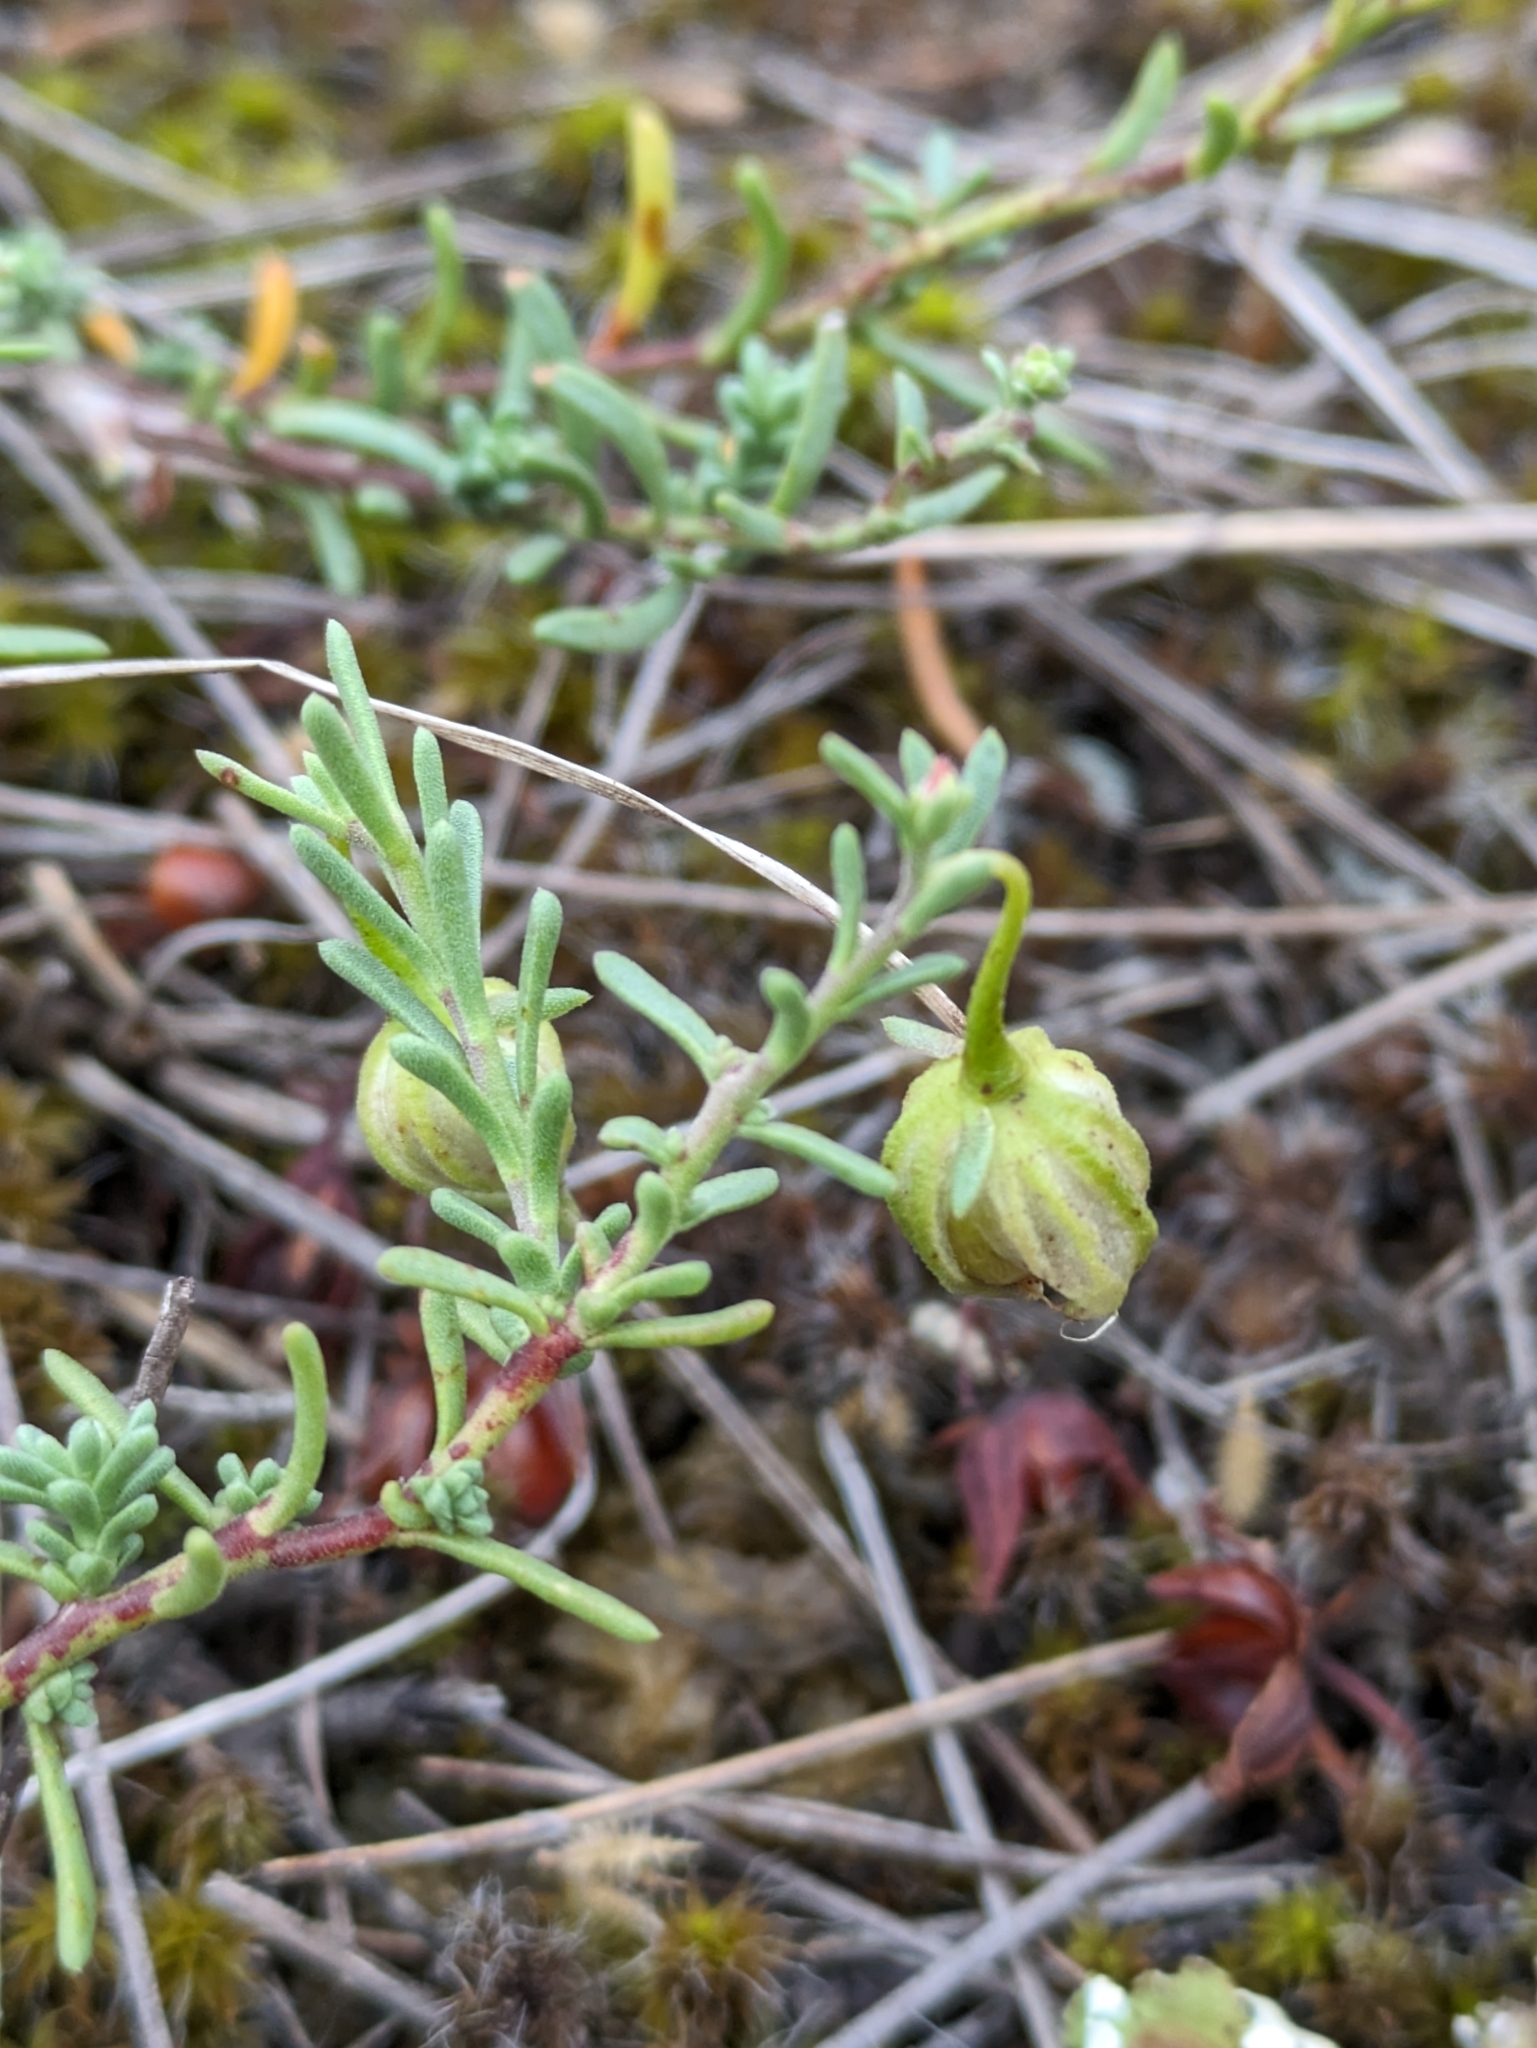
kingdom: Plantae
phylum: Tracheophyta
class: Magnoliopsida
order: Malvales
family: Cistaceae
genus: Fumana
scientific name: Fumana procumbens
